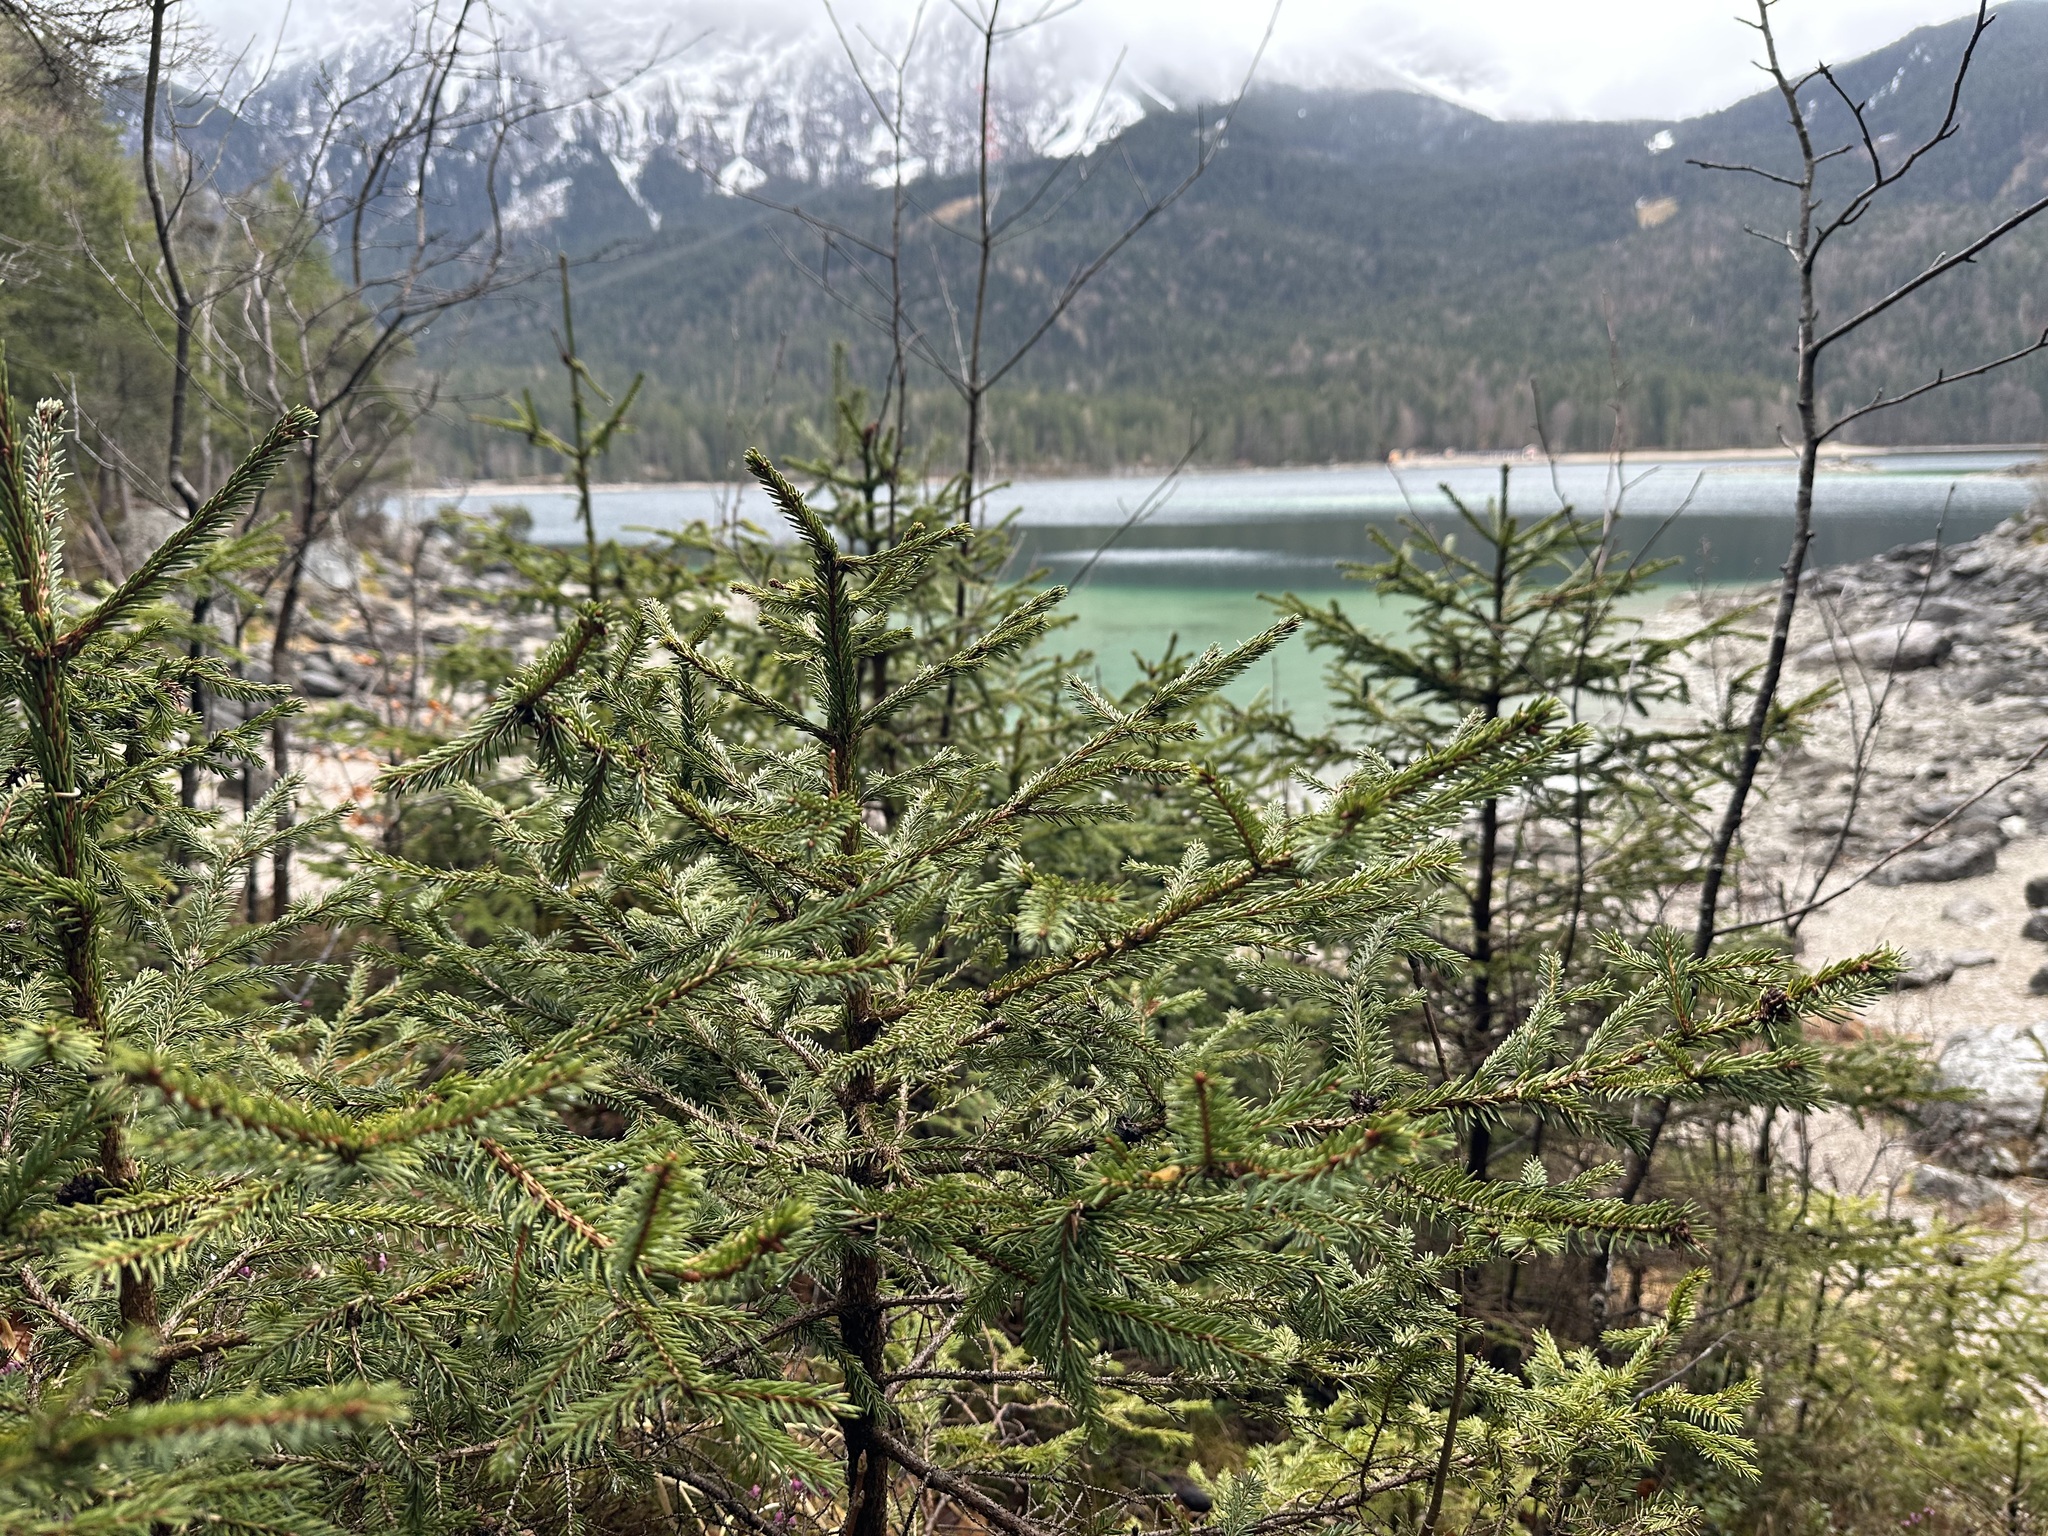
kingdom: Plantae
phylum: Tracheophyta
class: Pinopsida
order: Pinales
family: Pinaceae
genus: Picea
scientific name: Picea abies
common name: Norway spruce
